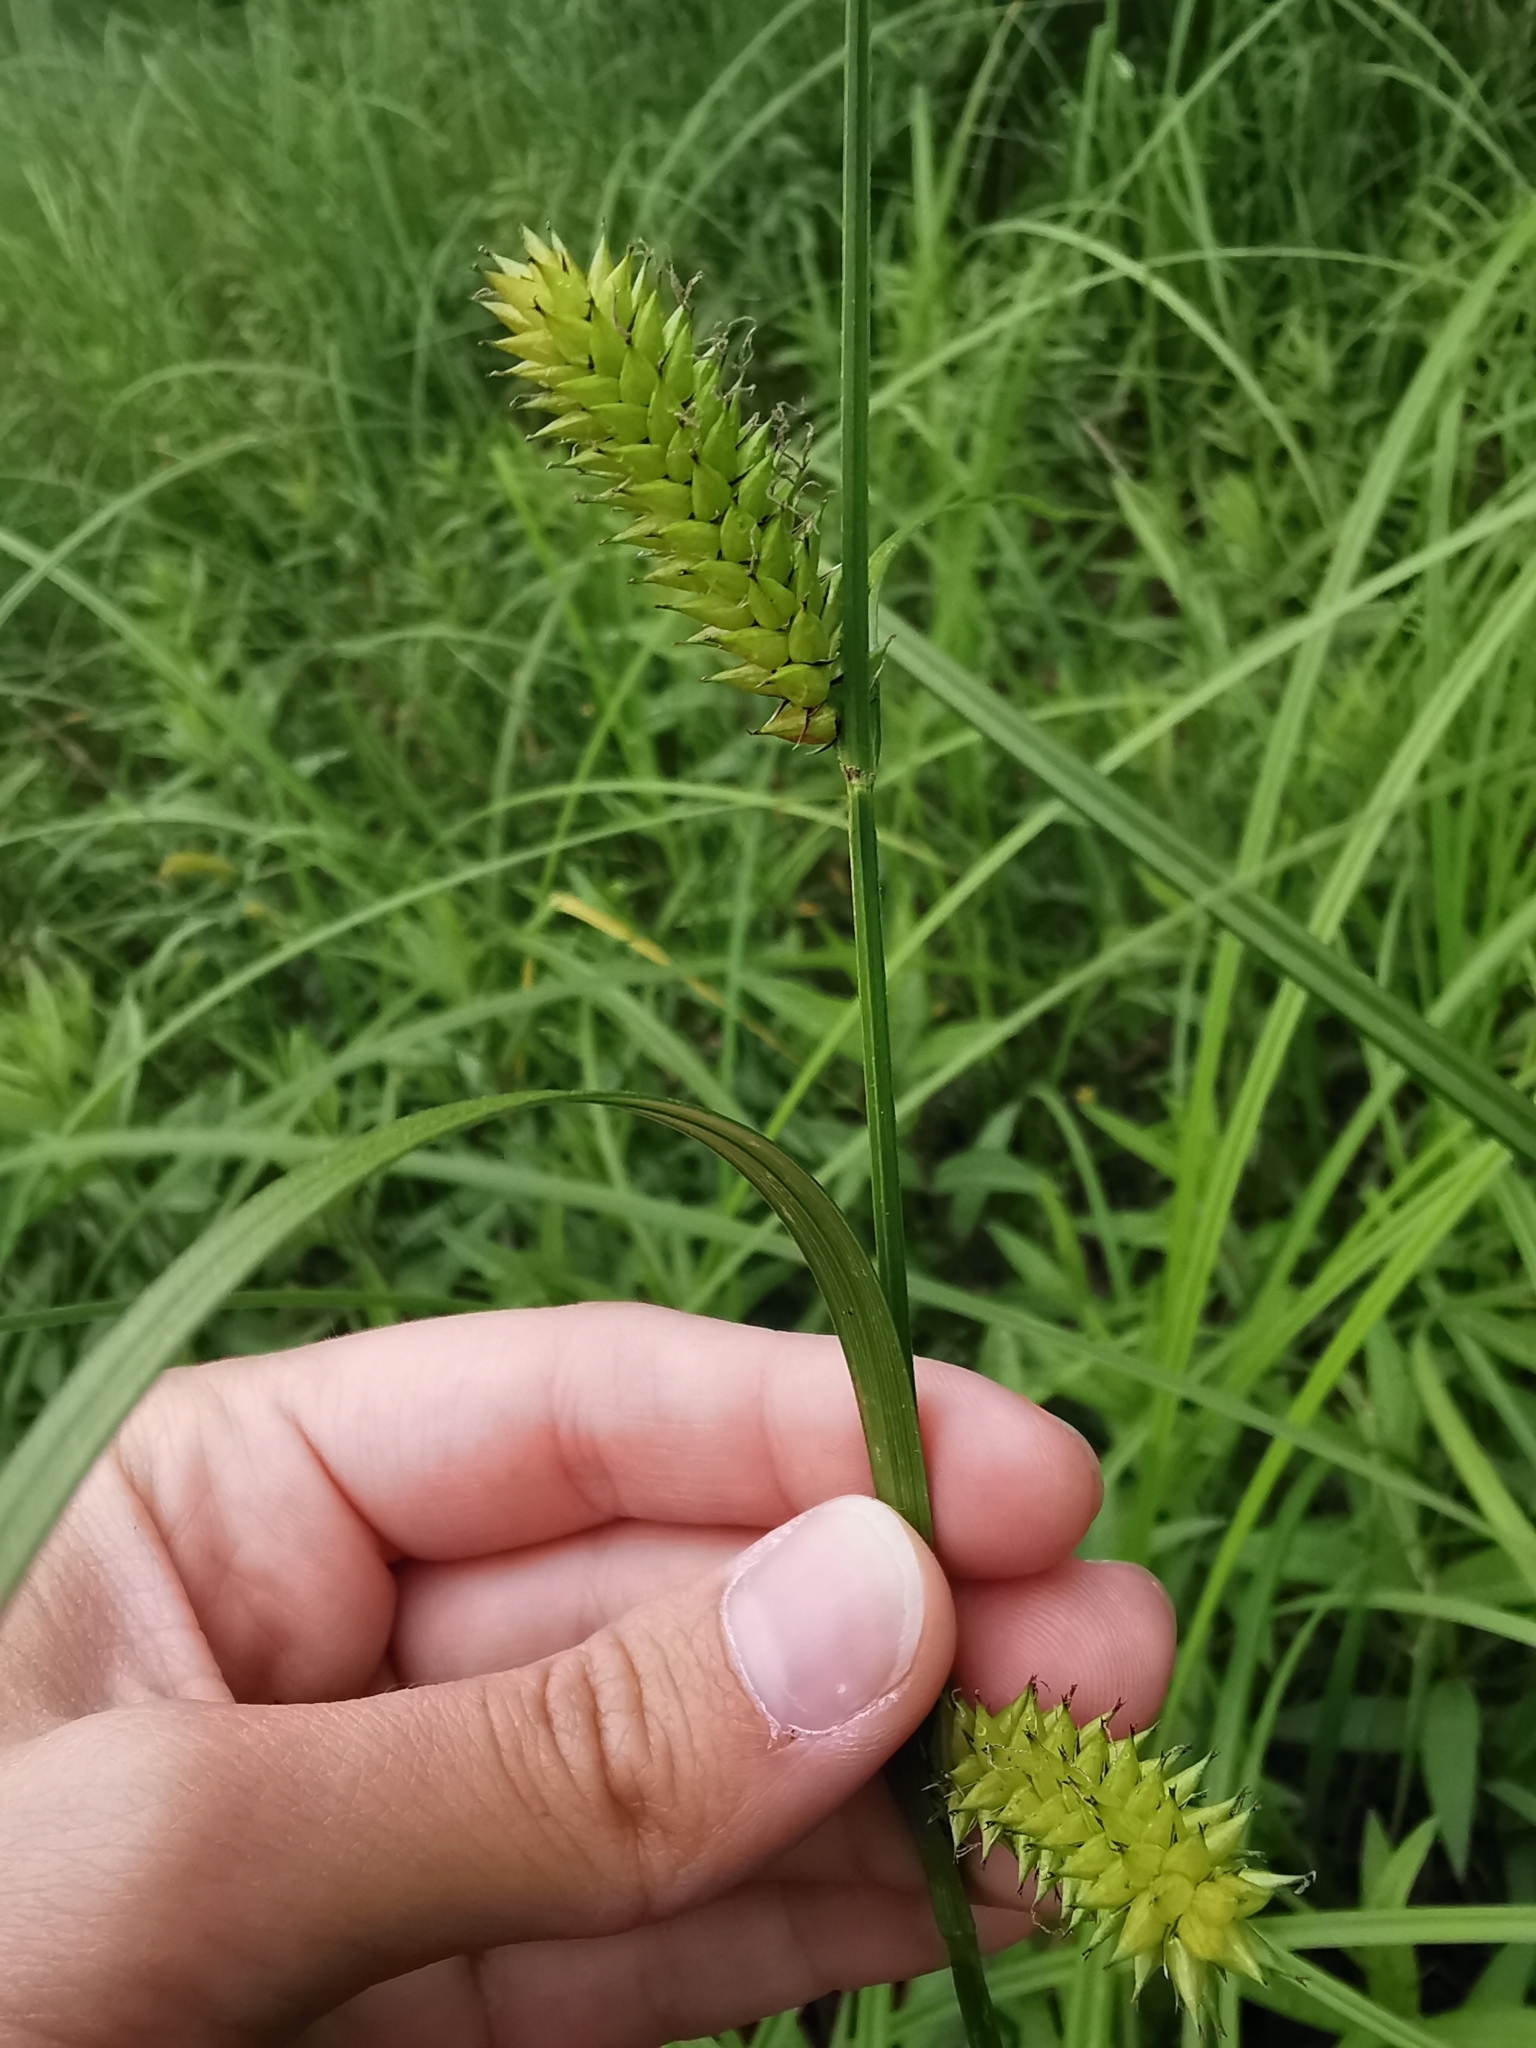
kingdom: Plantae
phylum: Tracheophyta
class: Liliopsida
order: Poales
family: Cyperaceae
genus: Carex
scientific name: Carex rostrata
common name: Bottle sedge
